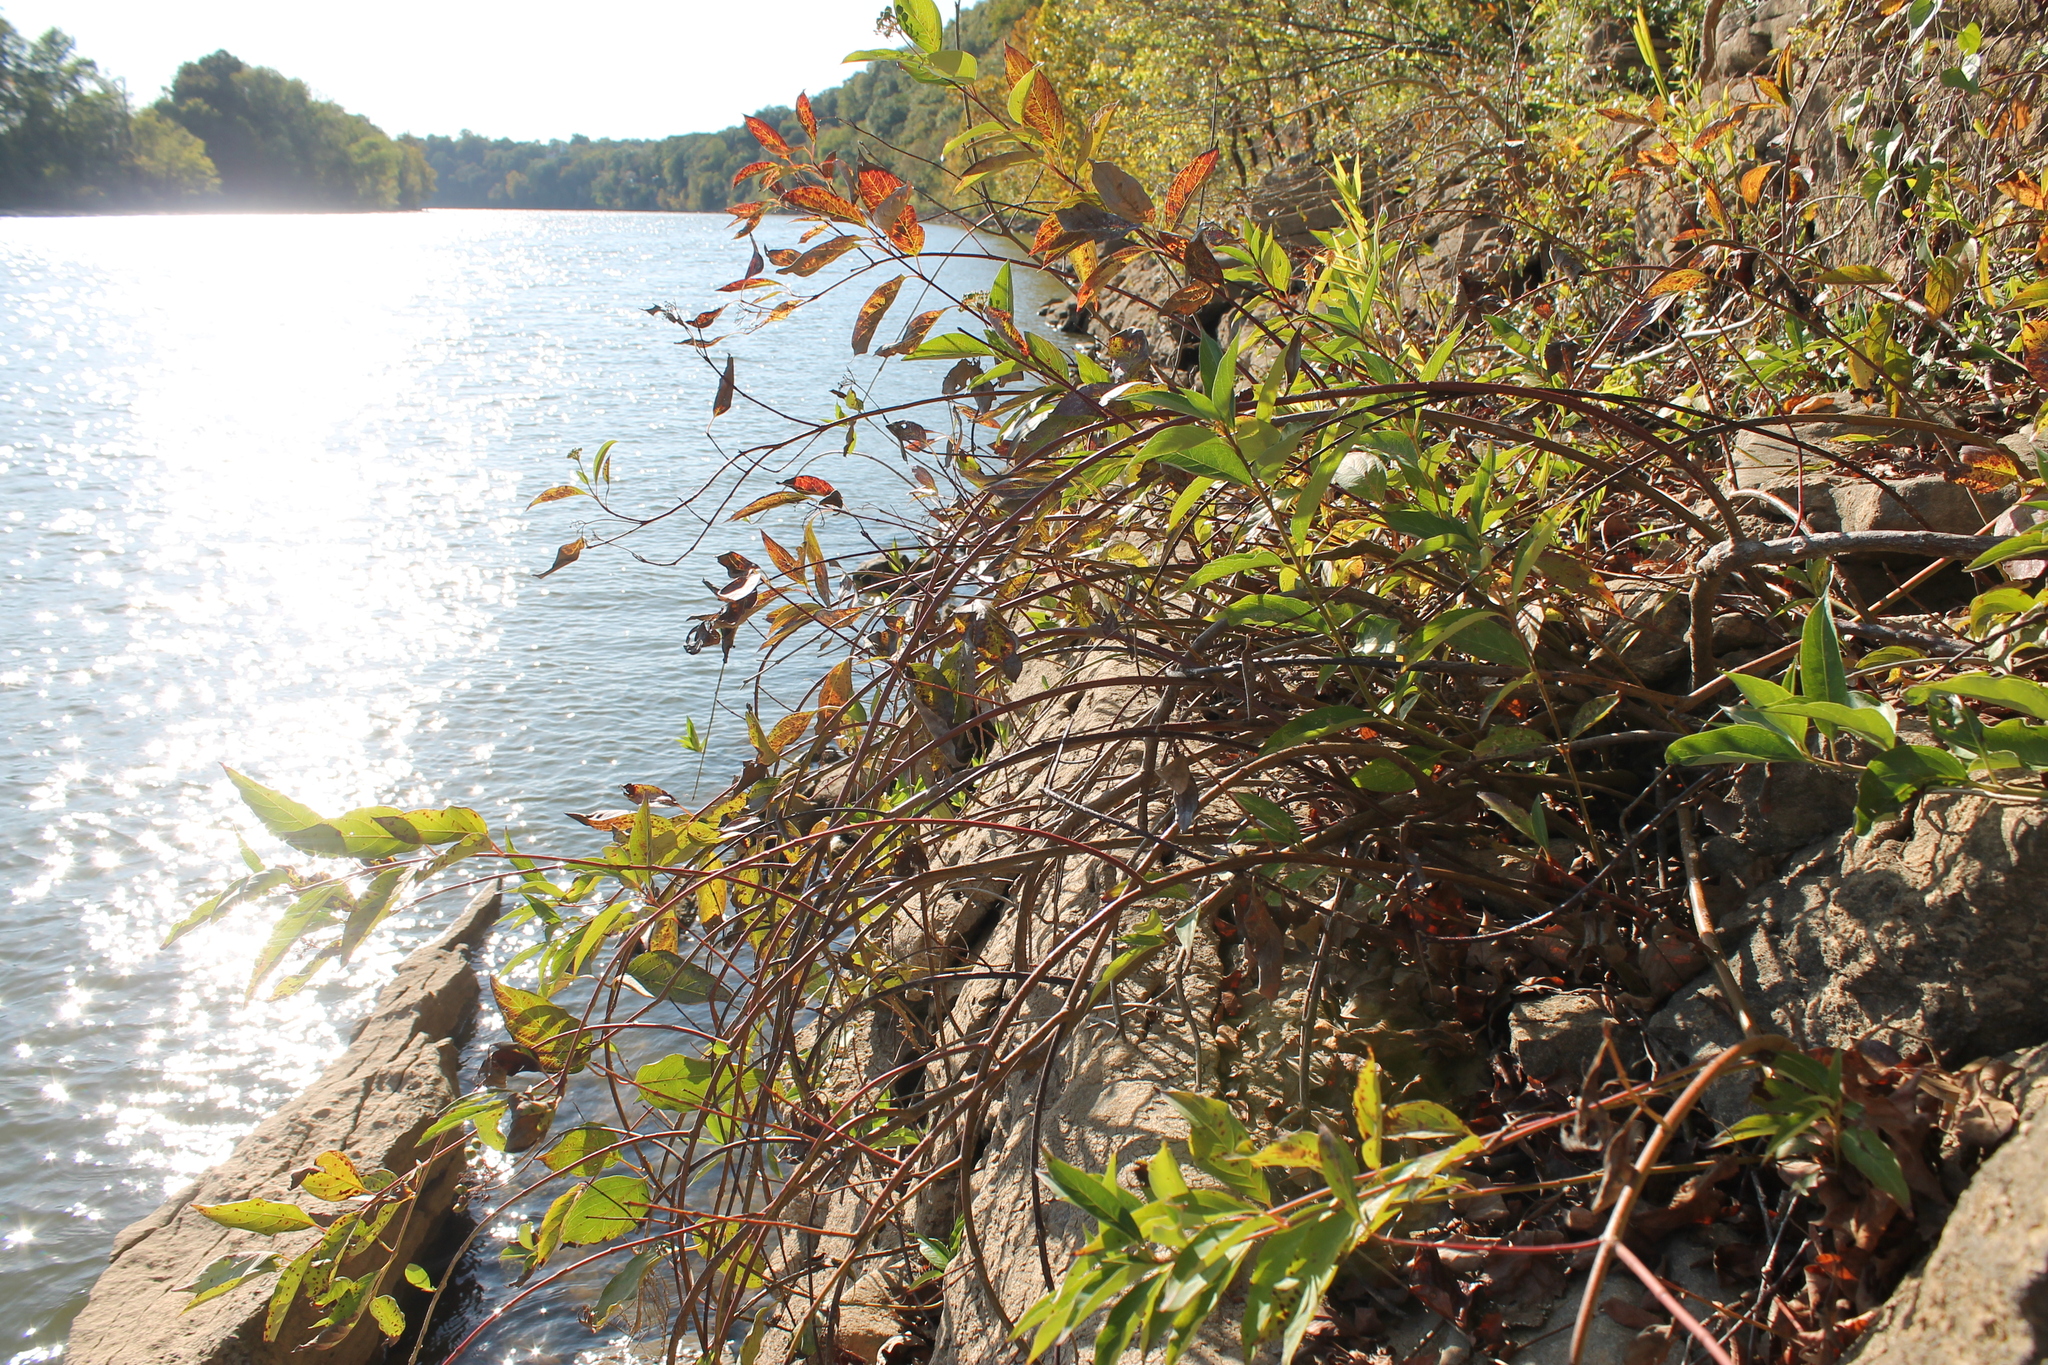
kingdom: Plantae
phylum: Tracheophyta
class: Magnoliopsida
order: Cornales
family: Cornaceae
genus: Cornus
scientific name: Cornus obliqua
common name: Pale dogwood
